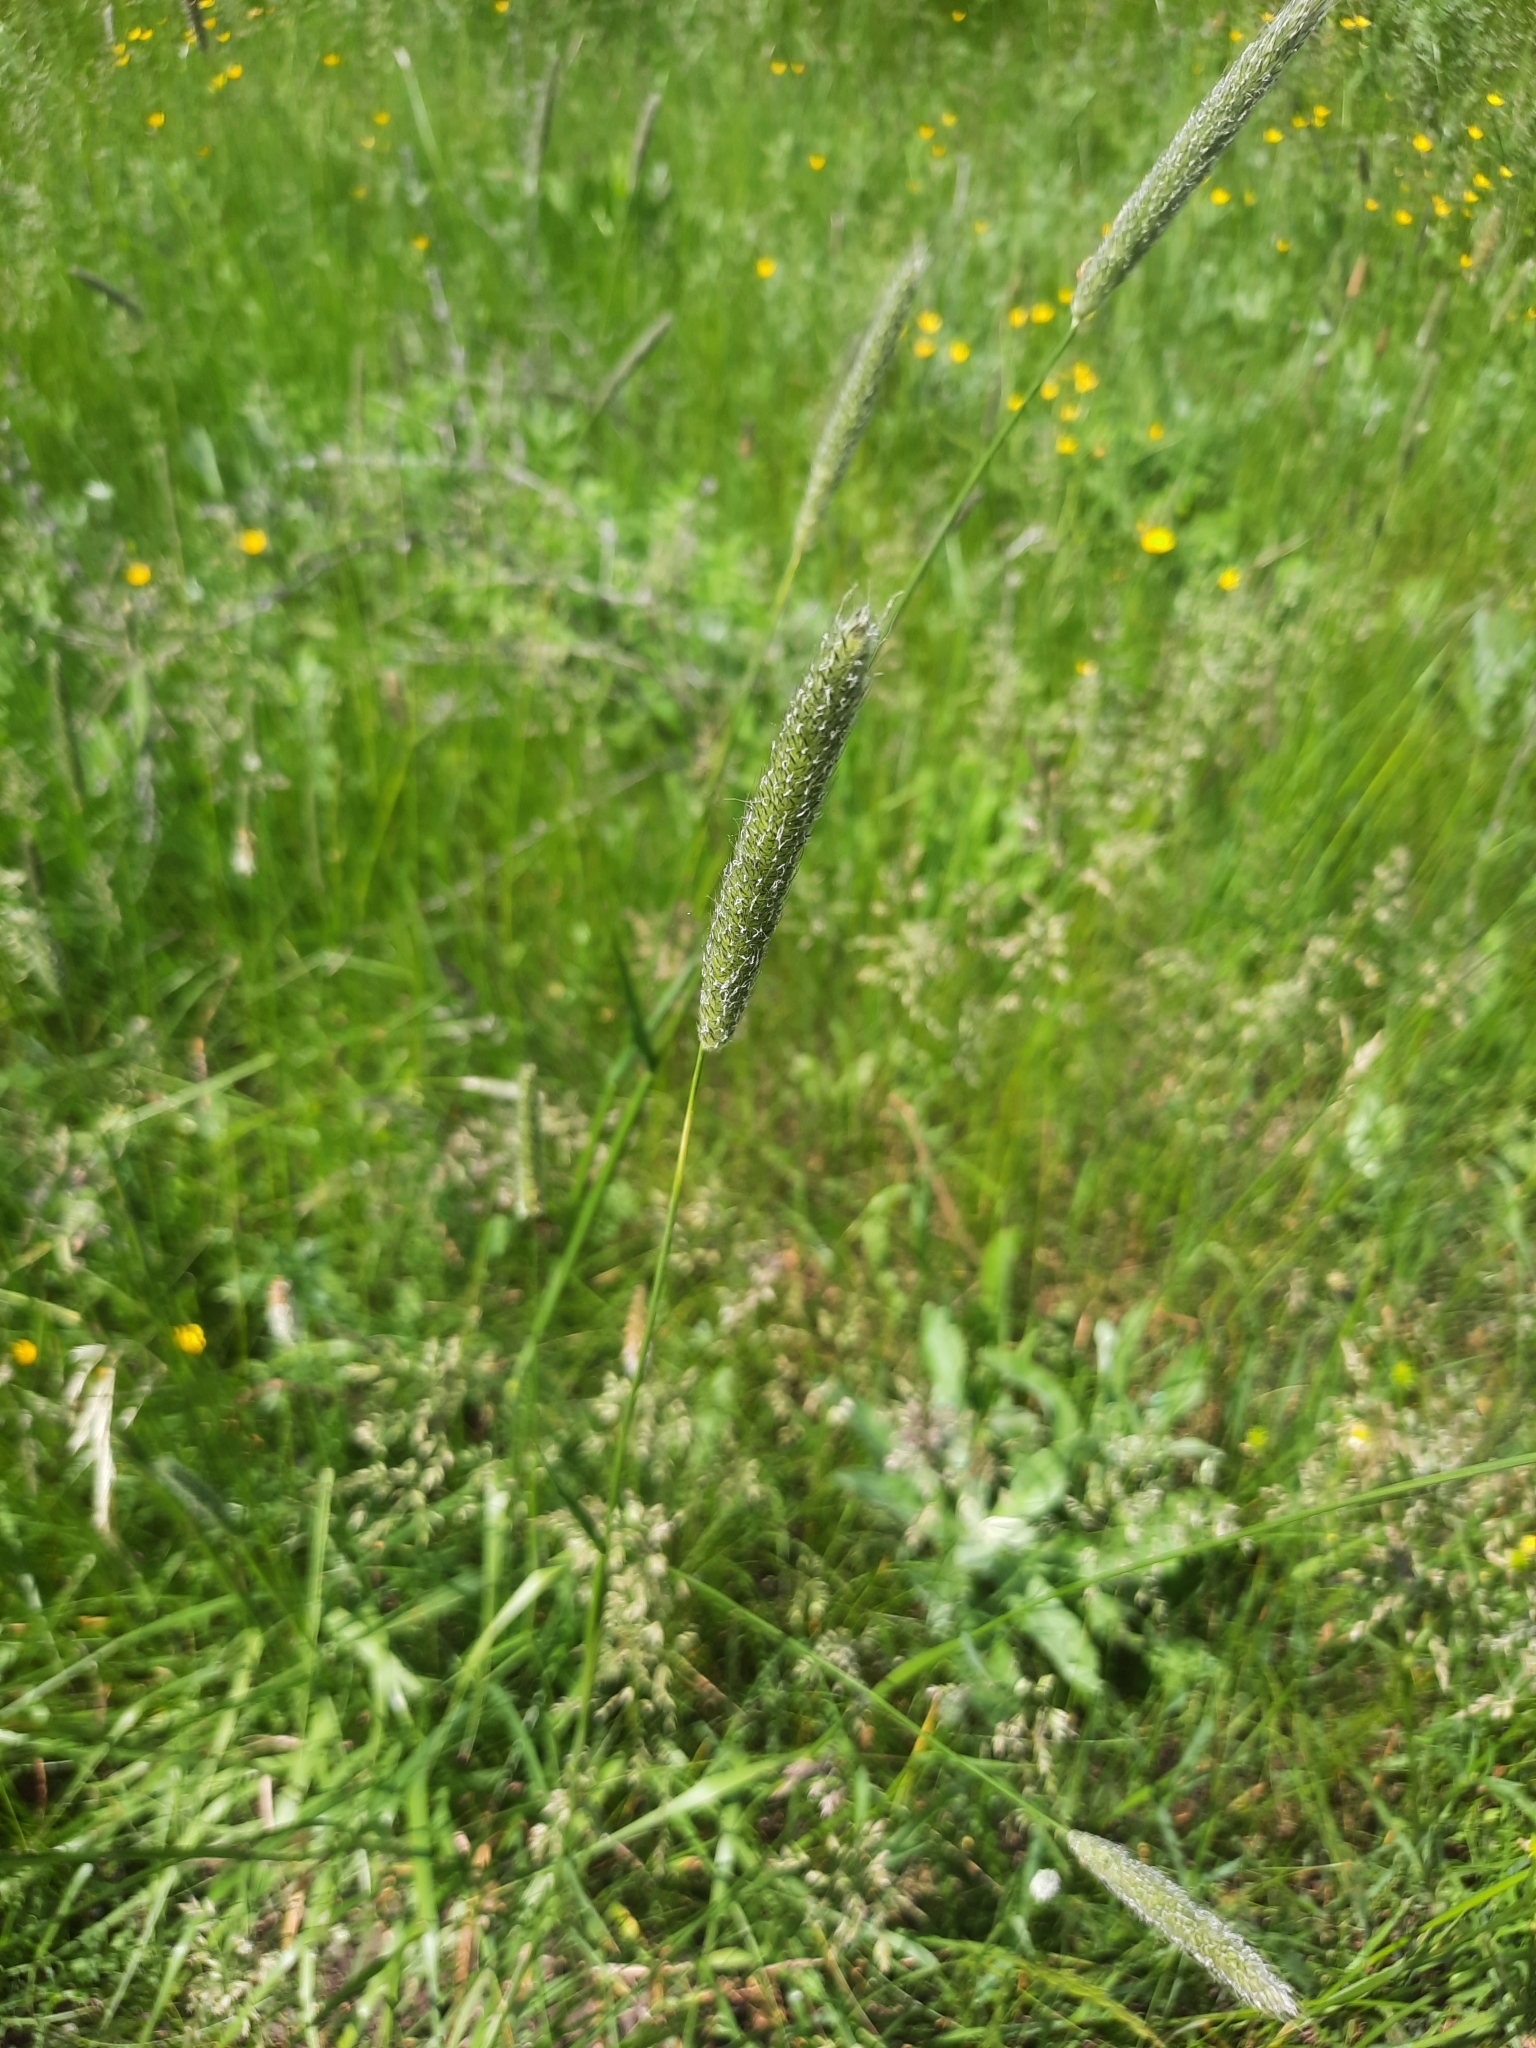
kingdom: Plantae
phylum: Tracheophyta
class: Liliopsida
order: Poales
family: Poaceae
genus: Alopecurus
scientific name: Alopecurus pratensis
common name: Meadow foxtail
